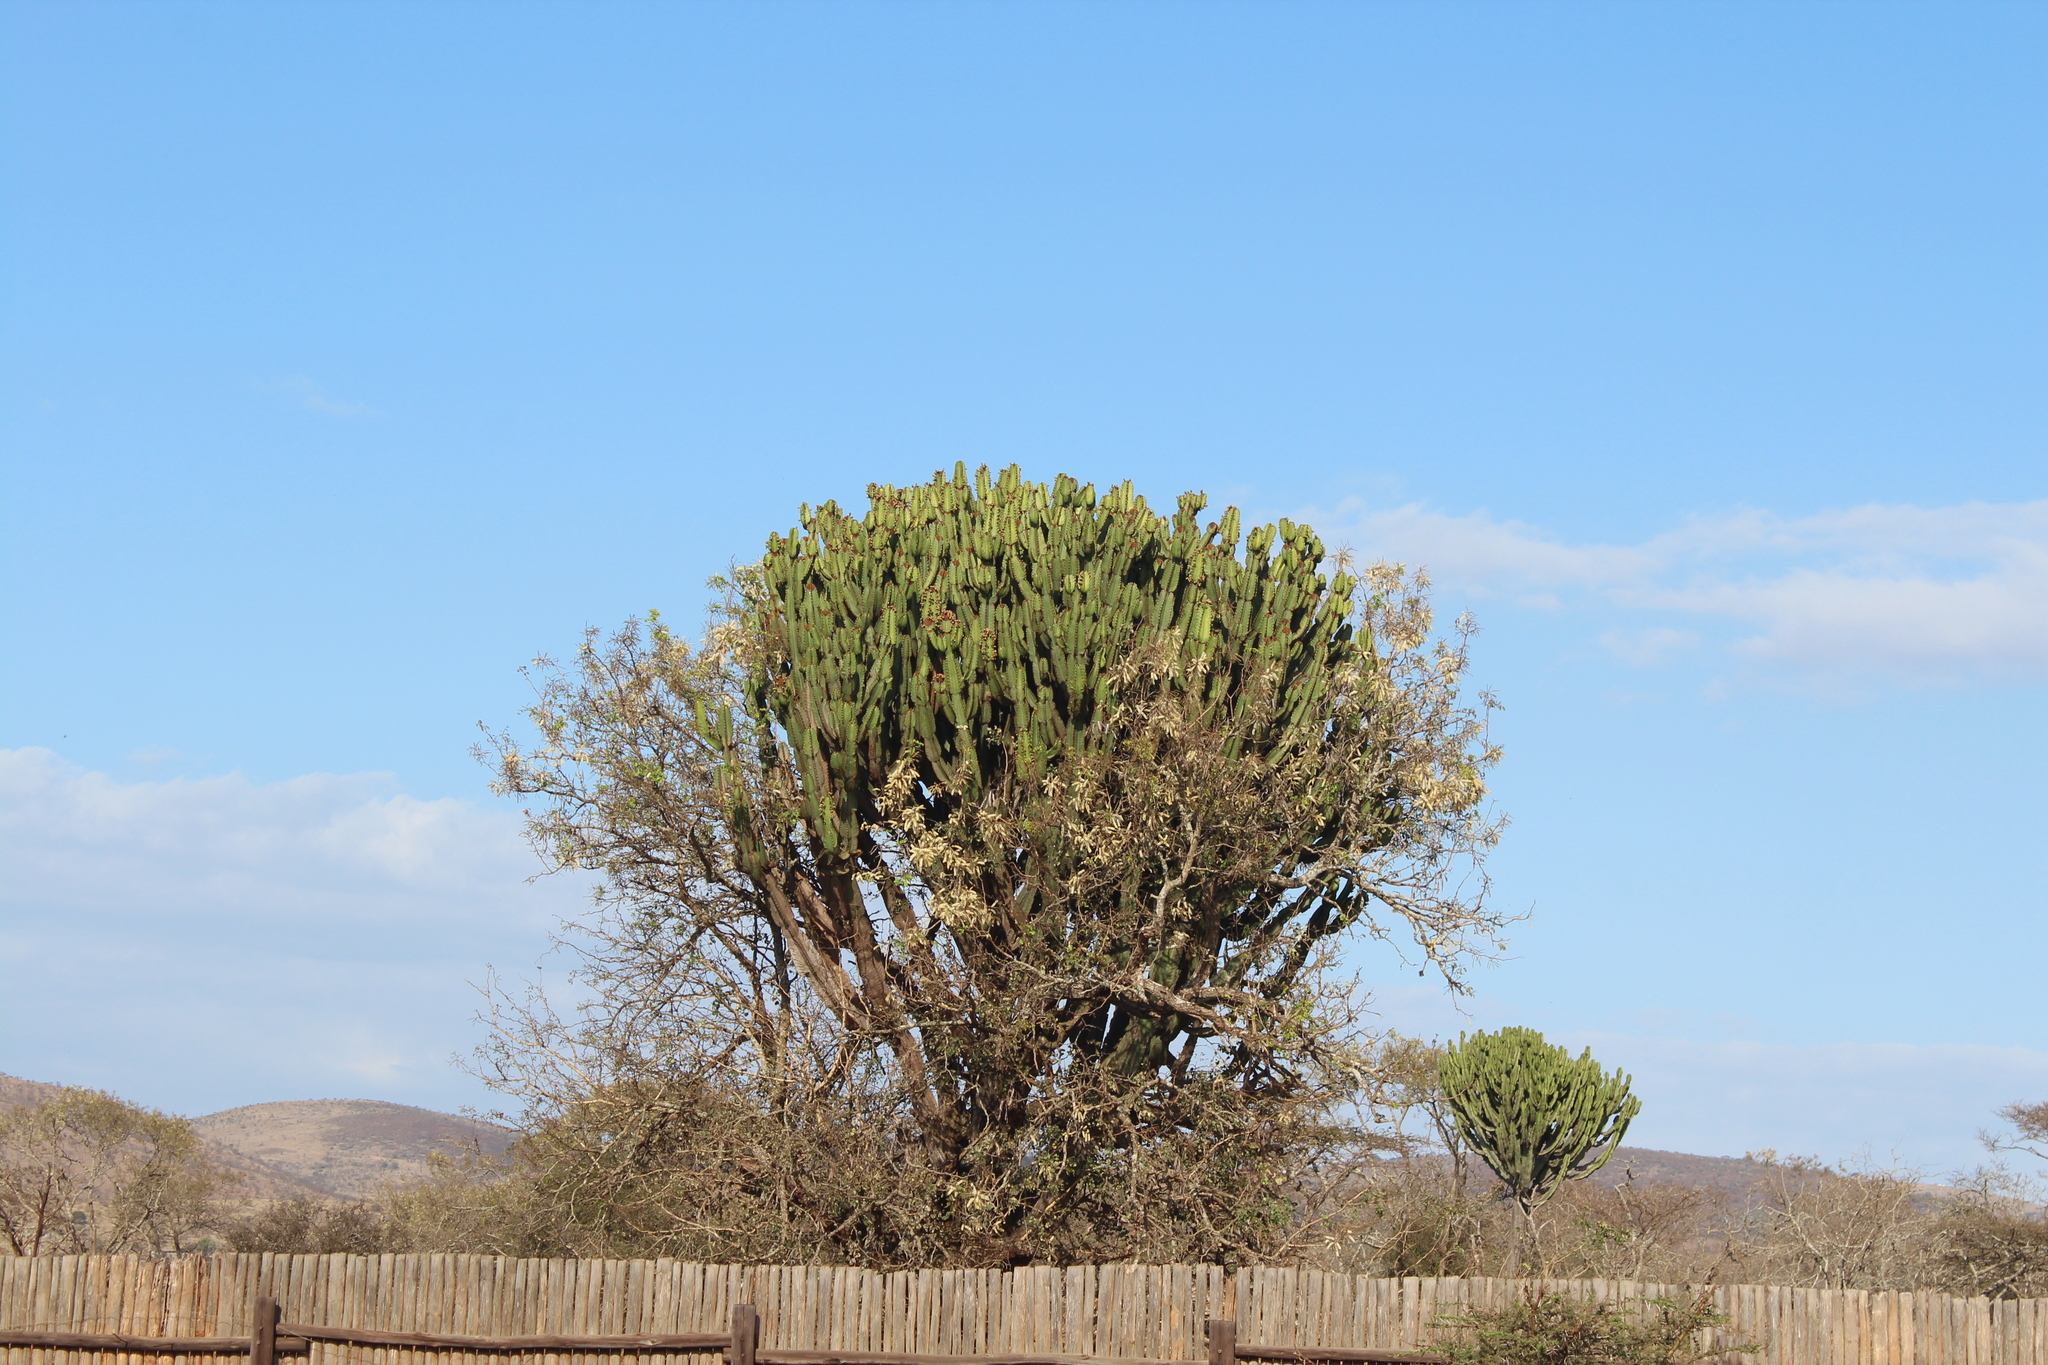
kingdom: Plantae
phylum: Tracheophyta
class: Magnoliopsida
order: Malpighiales
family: Euphorbiaceae
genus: Euphorbia
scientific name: Euphorbia ingens
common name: Cactus spurge
